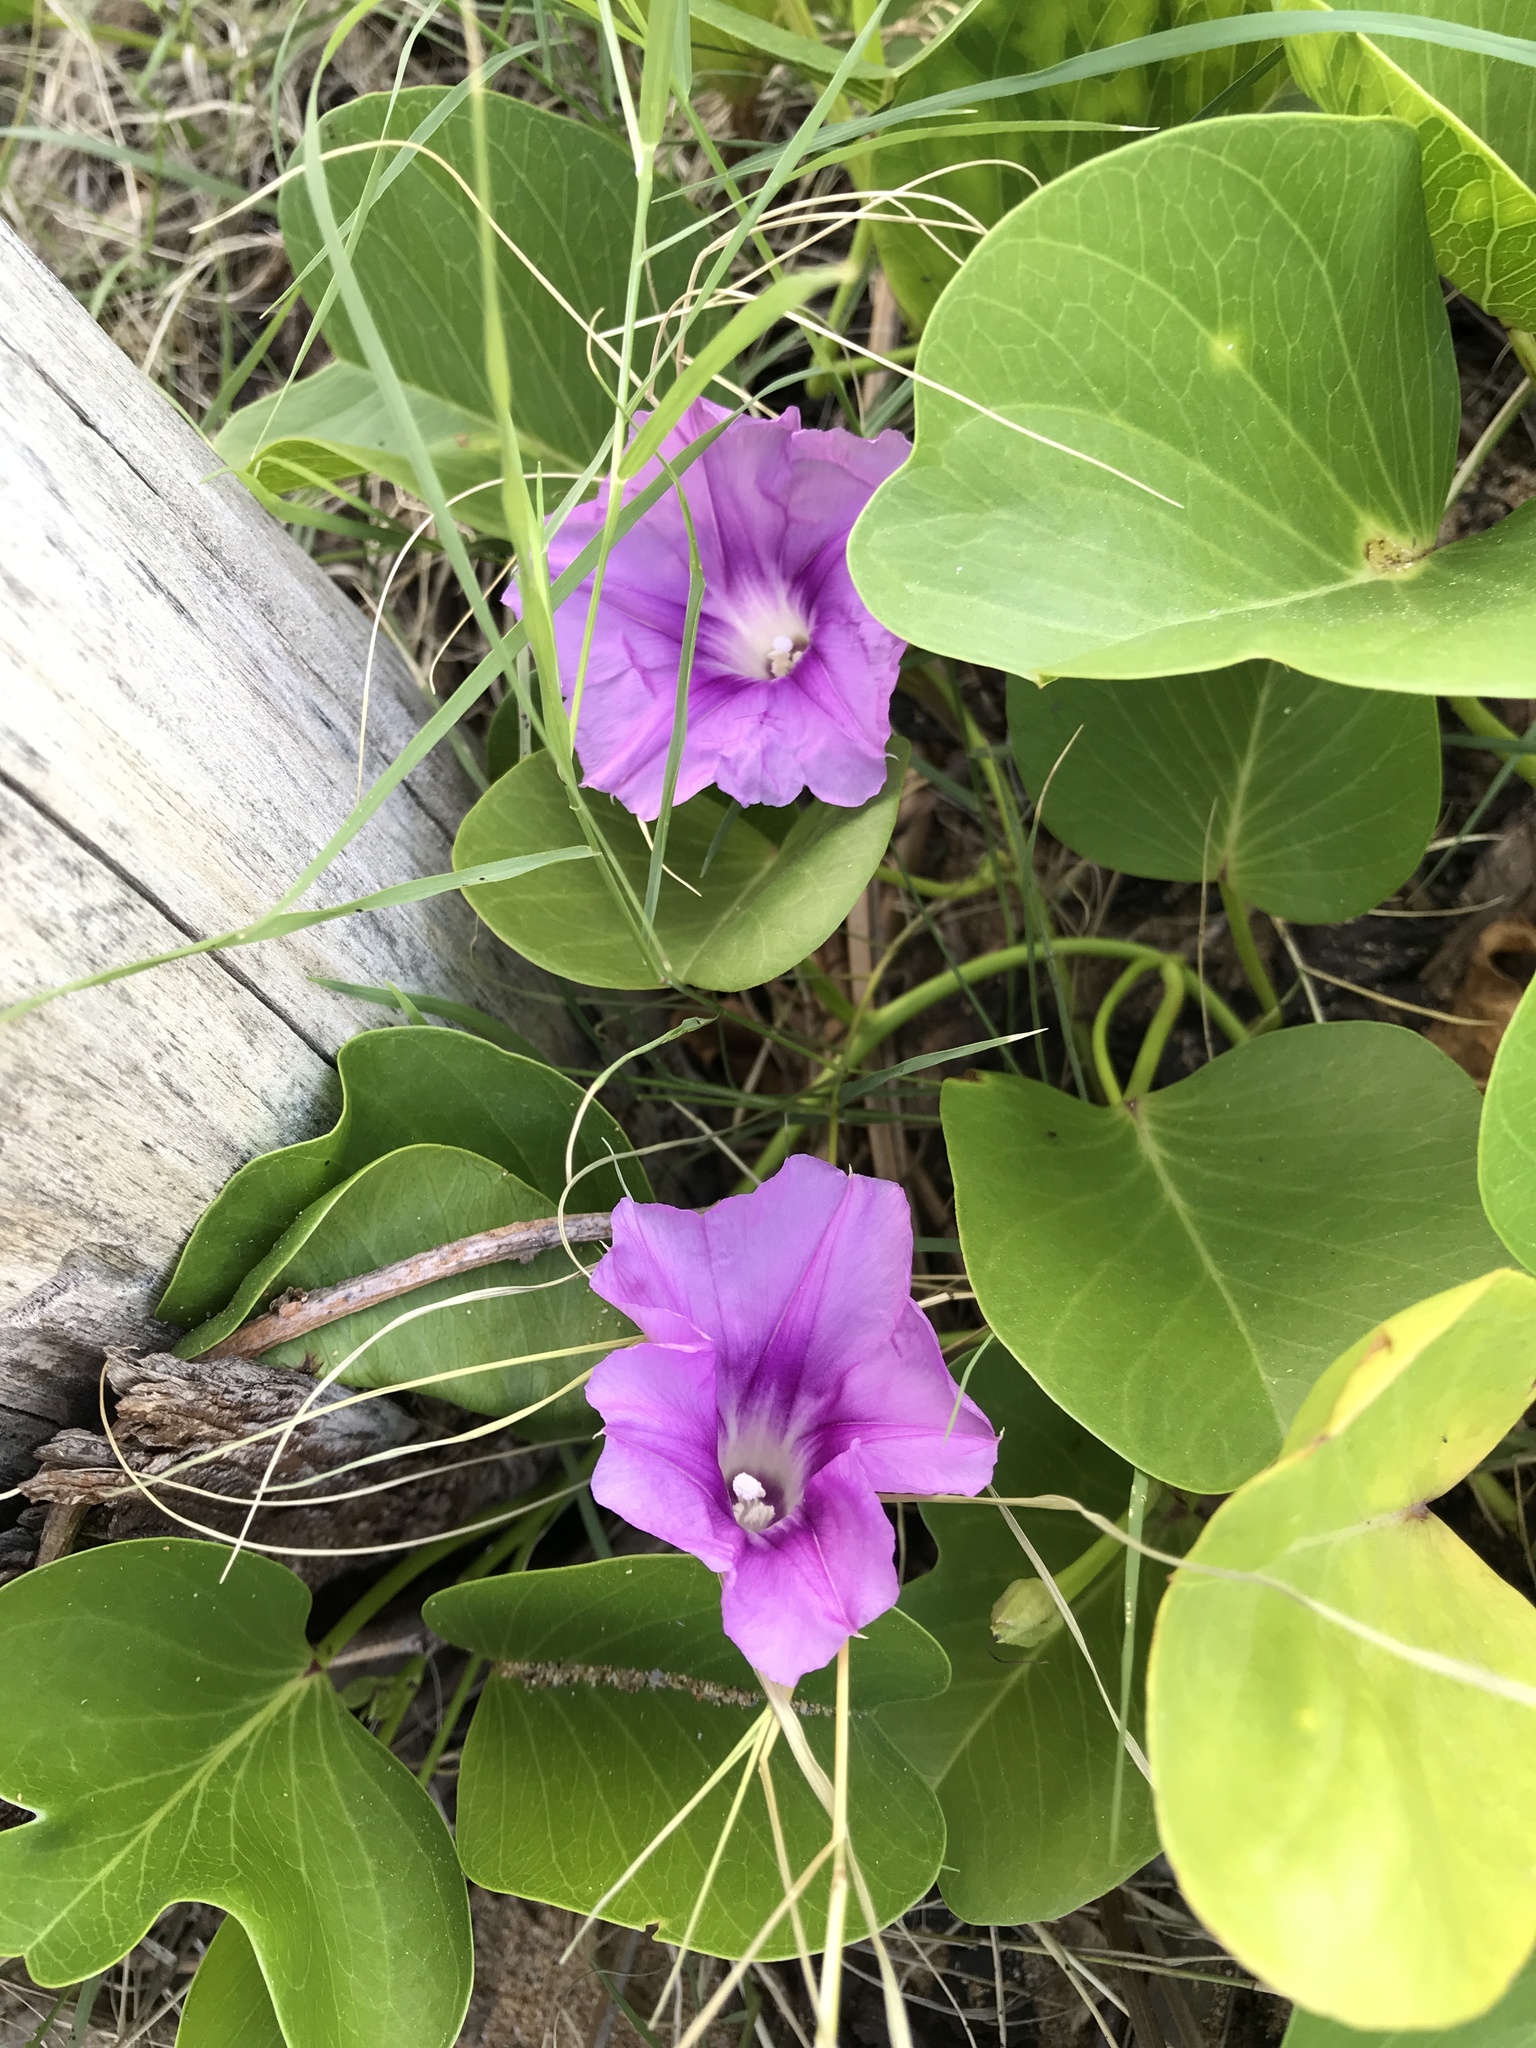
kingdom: Plantae
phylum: Tracheophyta
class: Magnoliopsida
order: Solanales
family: Convolvulaceae
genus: Ipomoea
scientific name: Ipomoea pes-caprae
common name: Beach morning glory
